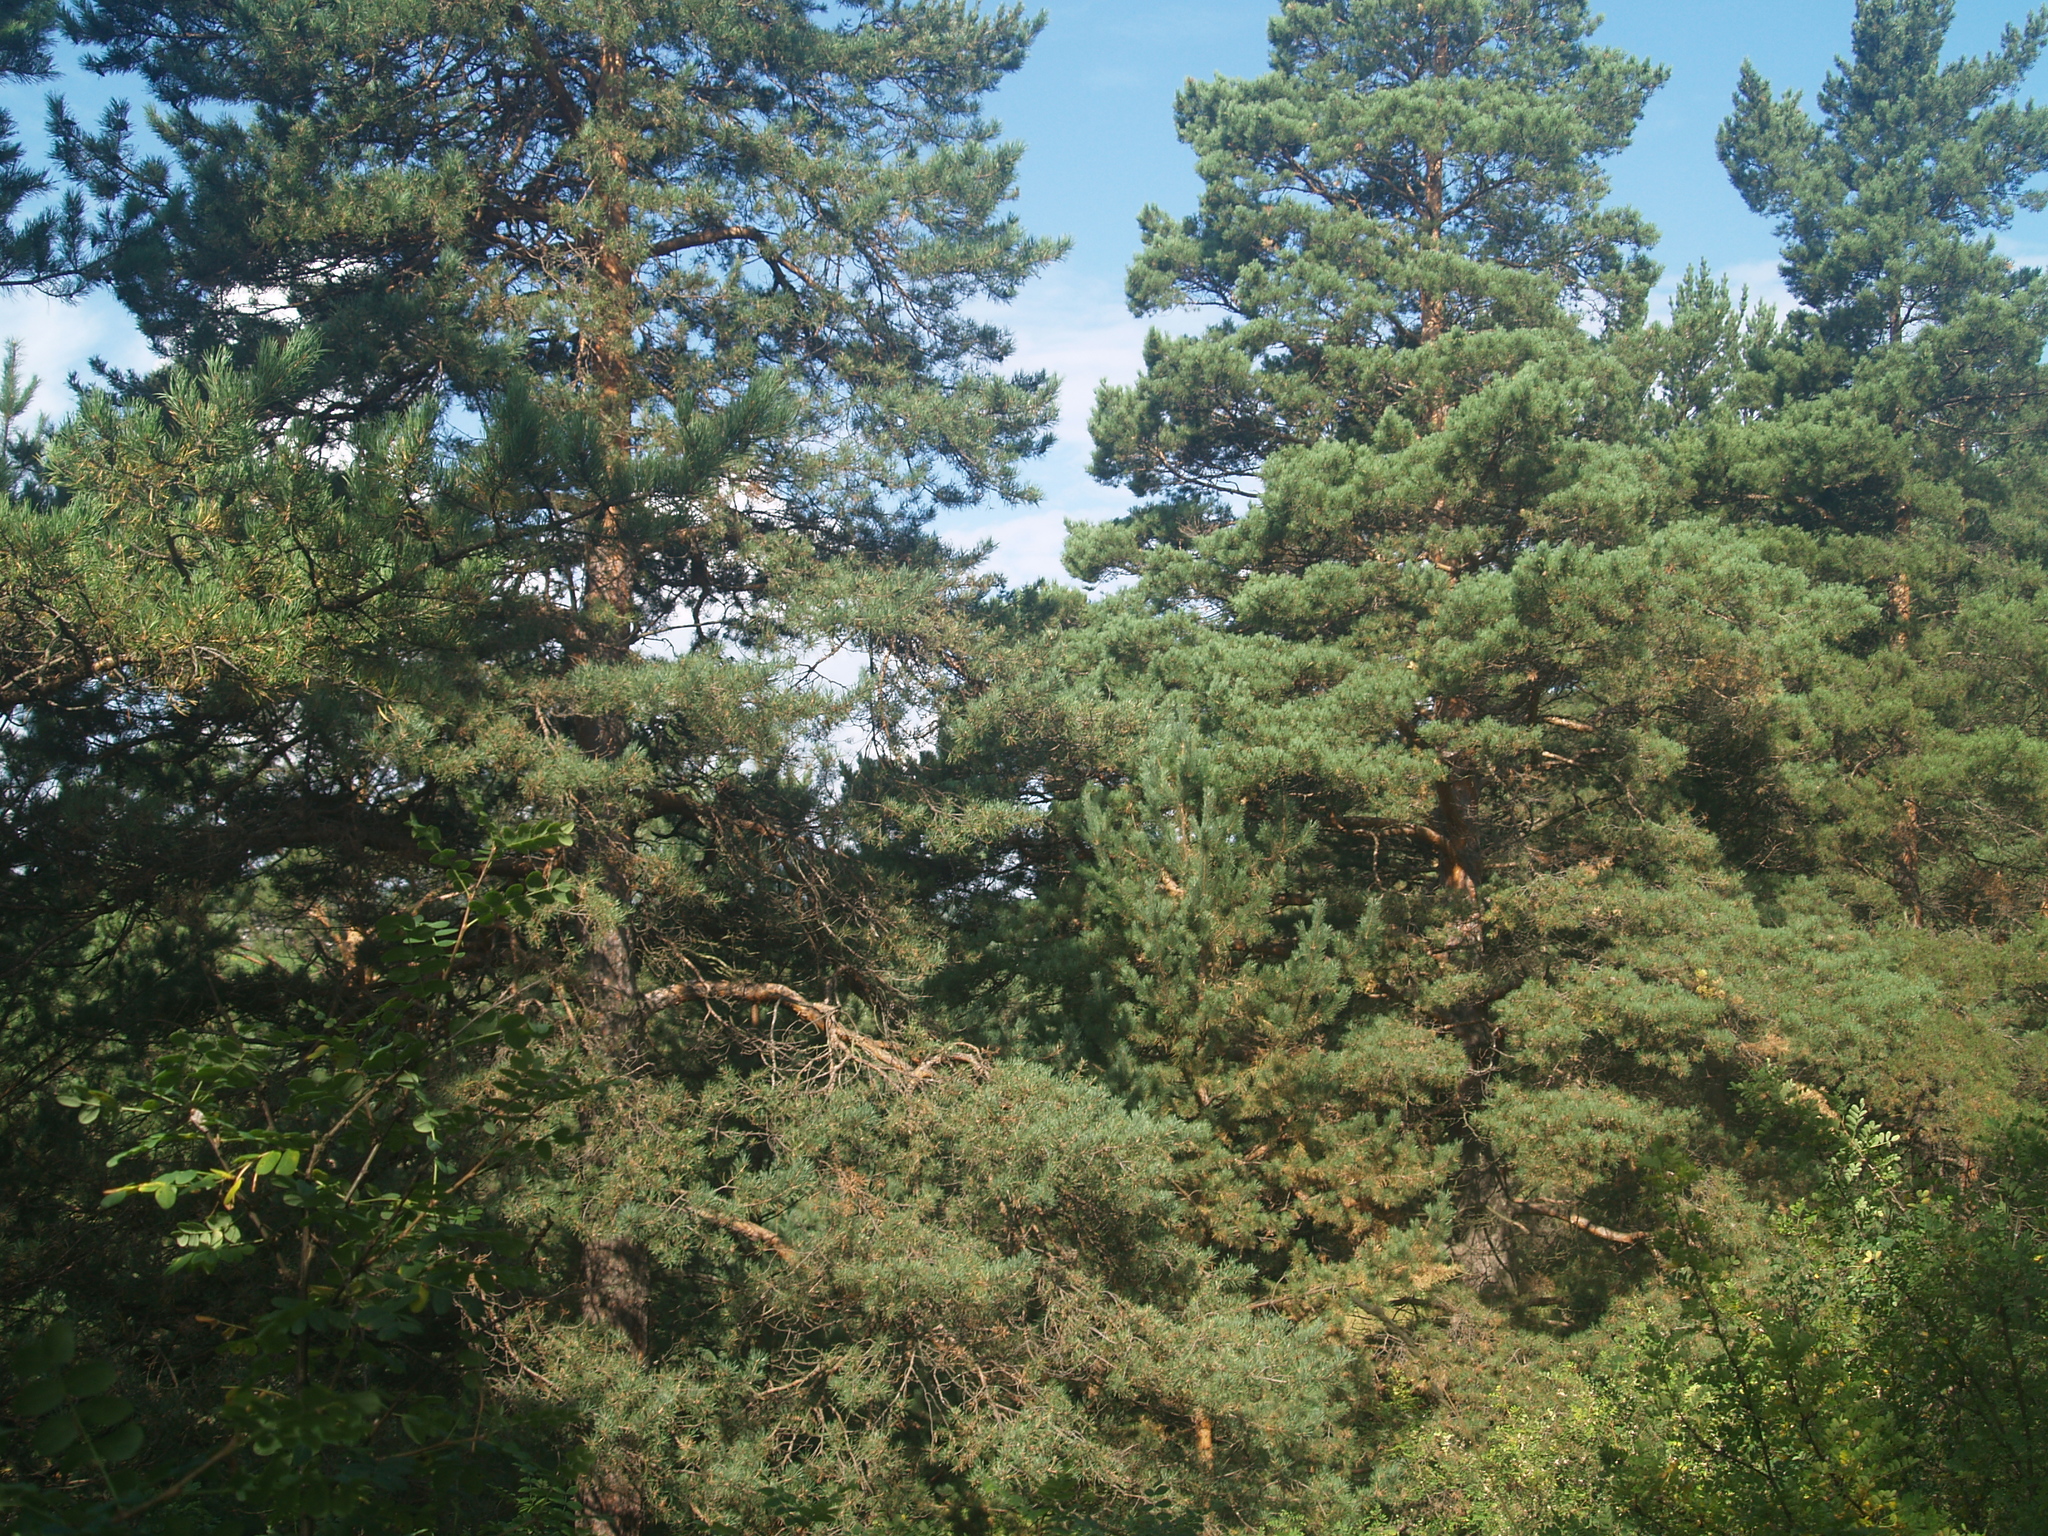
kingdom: Plantae
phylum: Tracheophyta
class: Pinopsida
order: Pinales
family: Pinaceae
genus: Pinus
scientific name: Pinus sylvestris
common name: Scots pine
